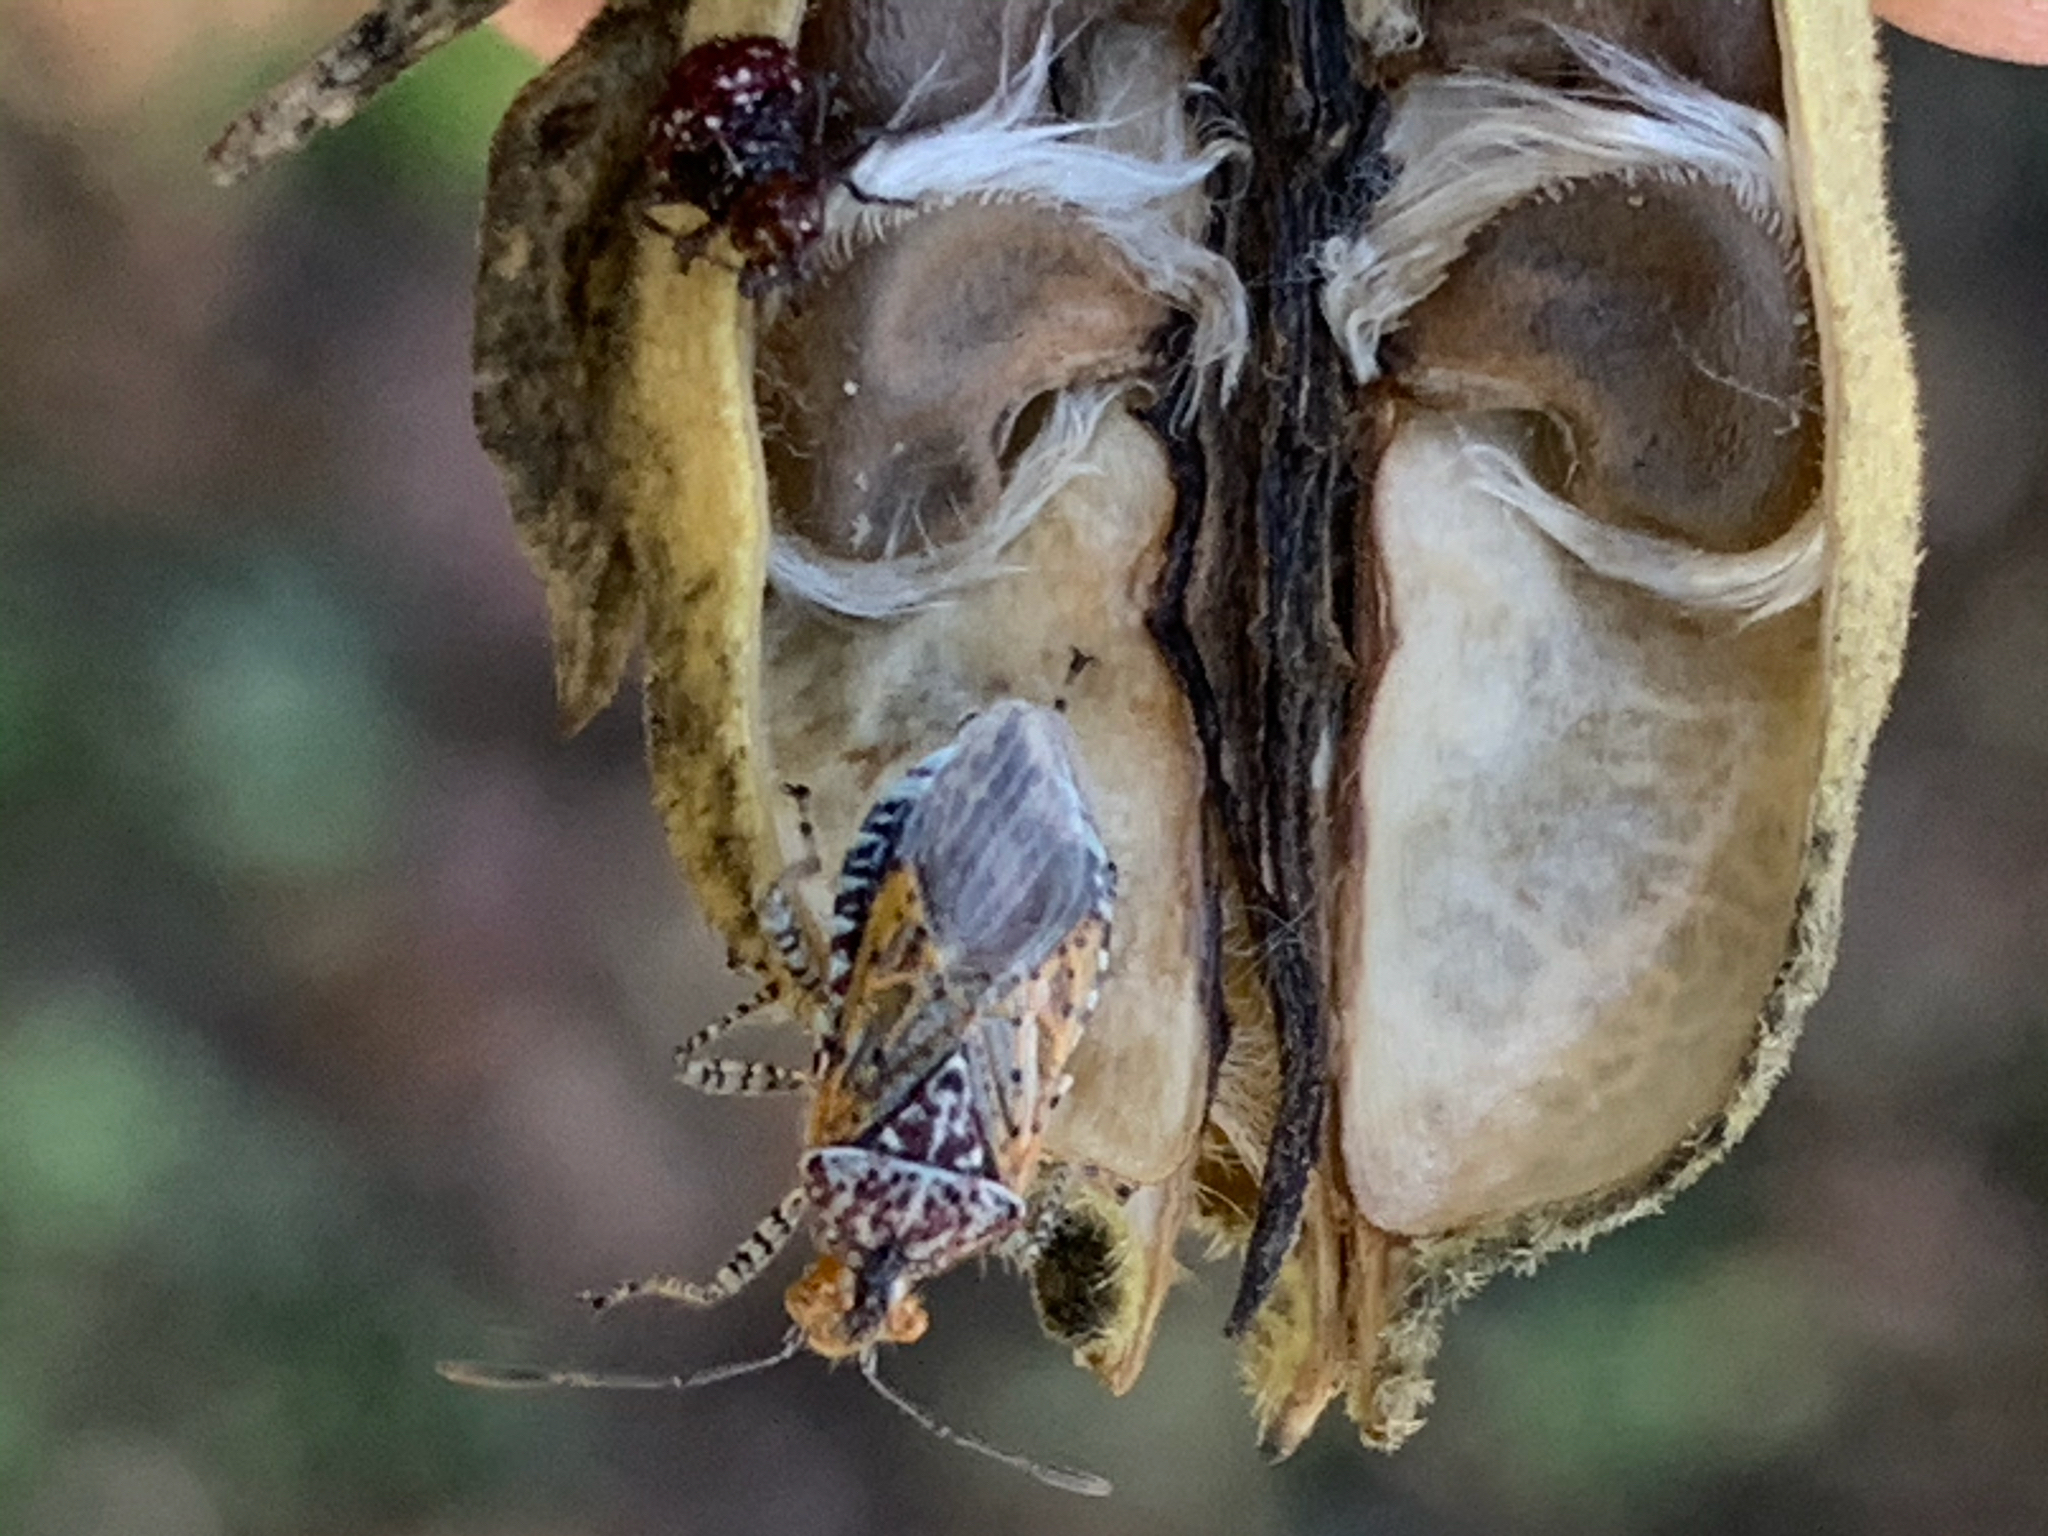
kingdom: Animalia
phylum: Arthropoda
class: Insecta
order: Hemiptera
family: Rhopalidae
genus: Niesthrea
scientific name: Niesthrea louisianica
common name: Scentless plant bug
